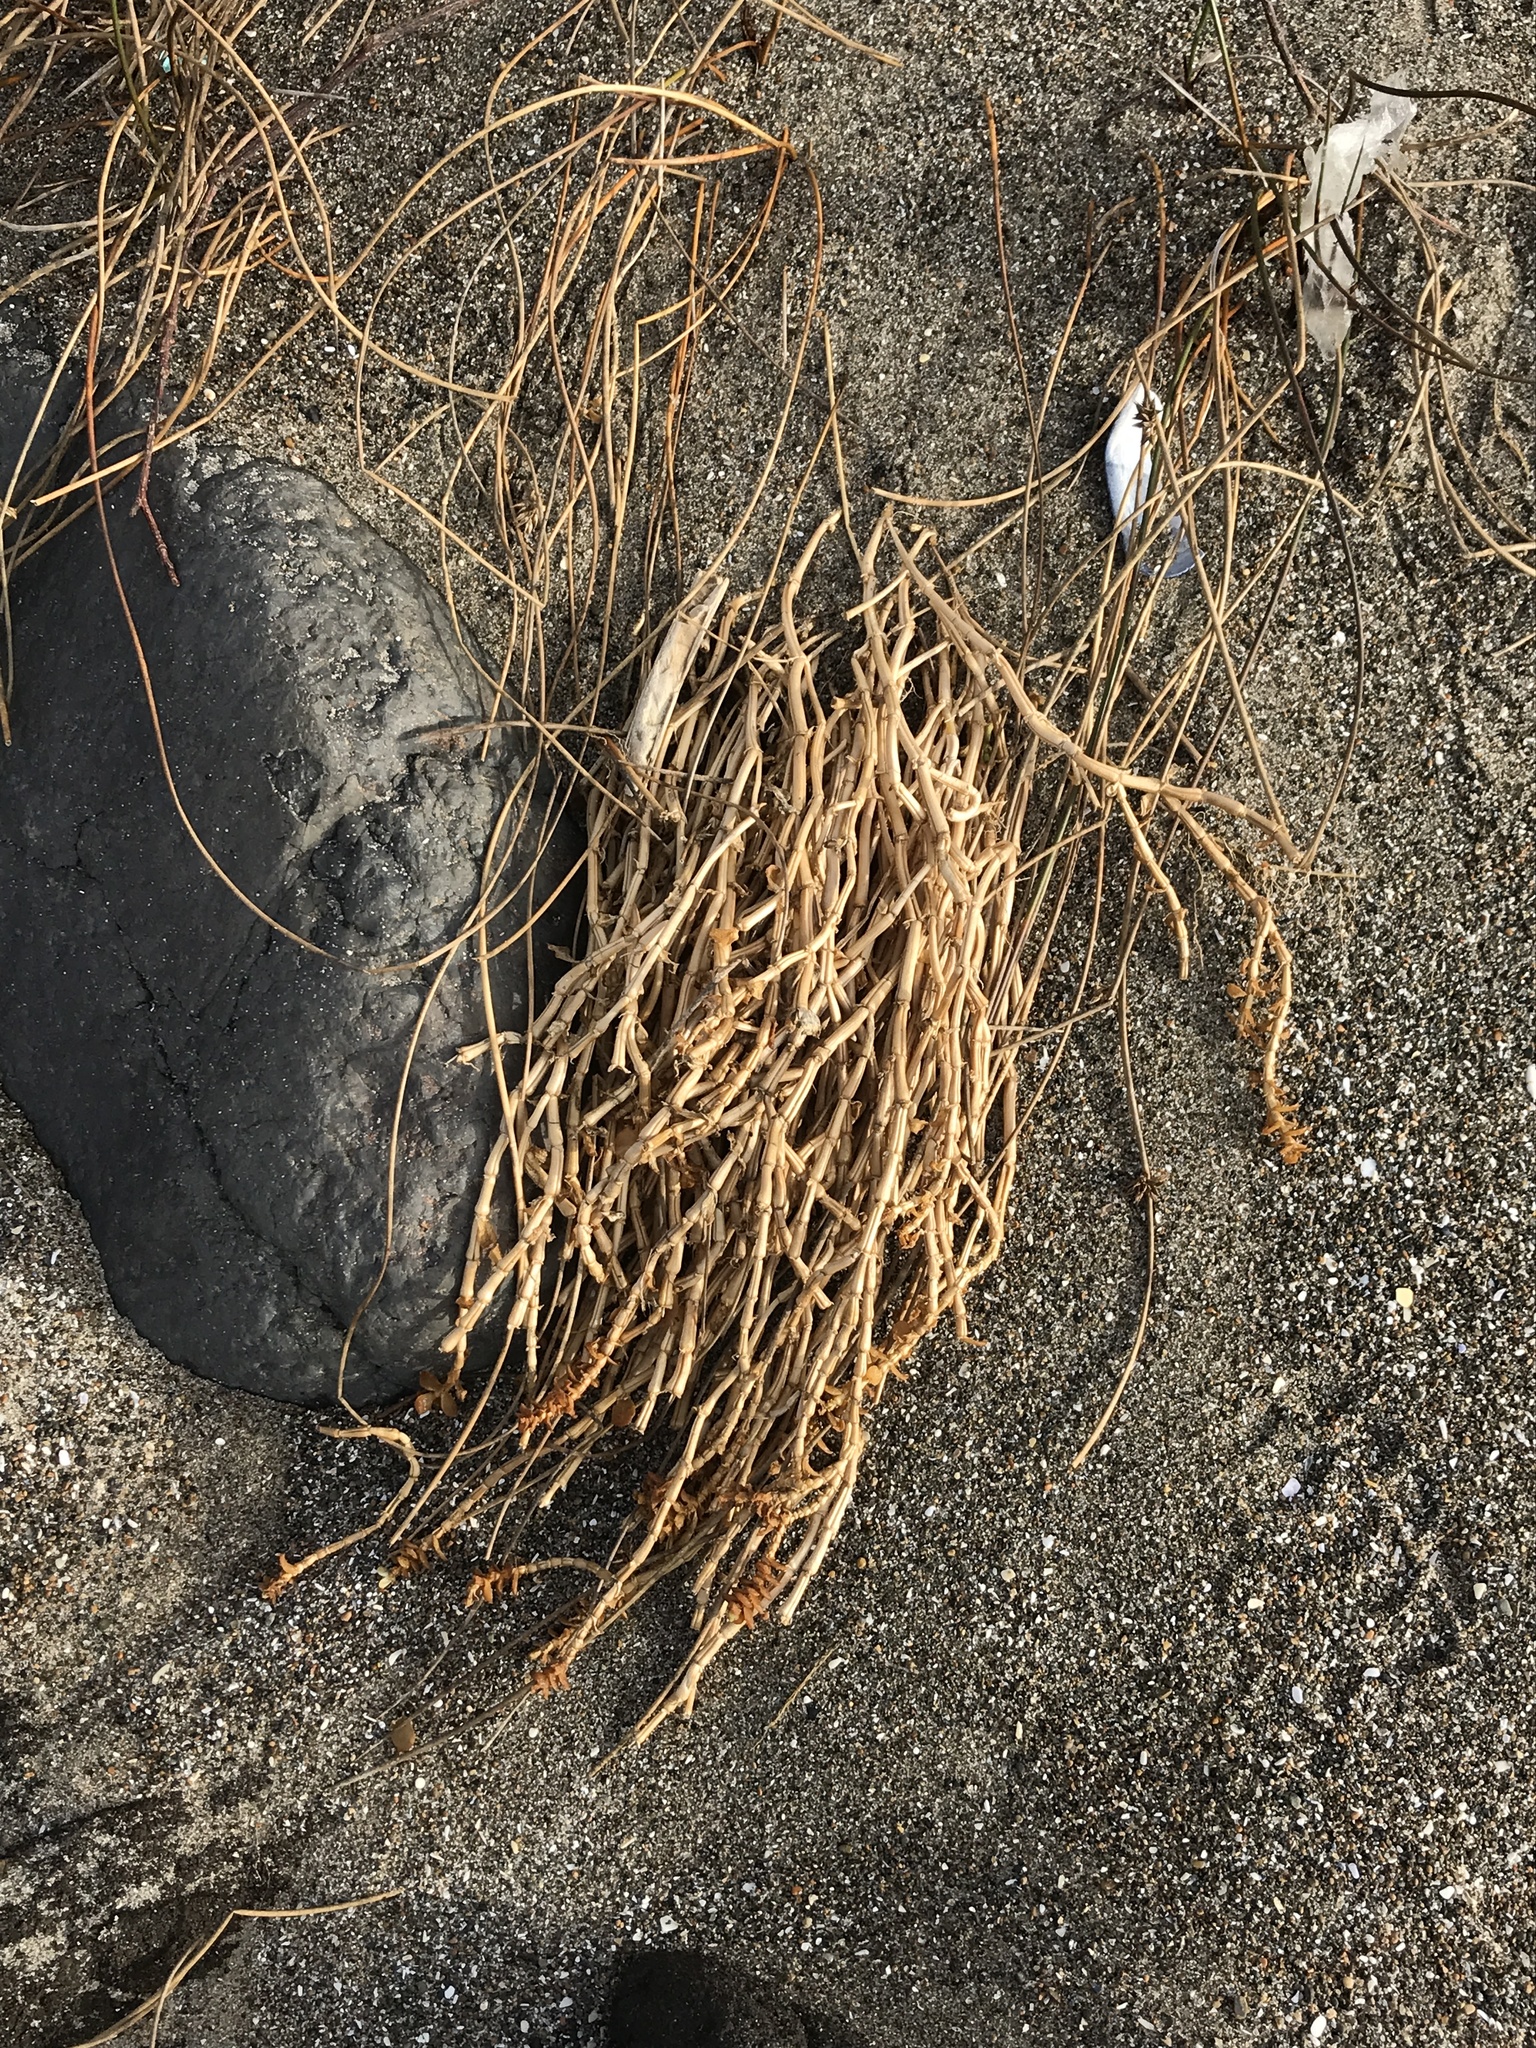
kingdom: Plantae
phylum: Tracheophyta
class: Magnoliopsida
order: Caryophyllales
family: Caryophyllaceae
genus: Honckenya
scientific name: Honckenya peploides
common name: Sea sandwort
